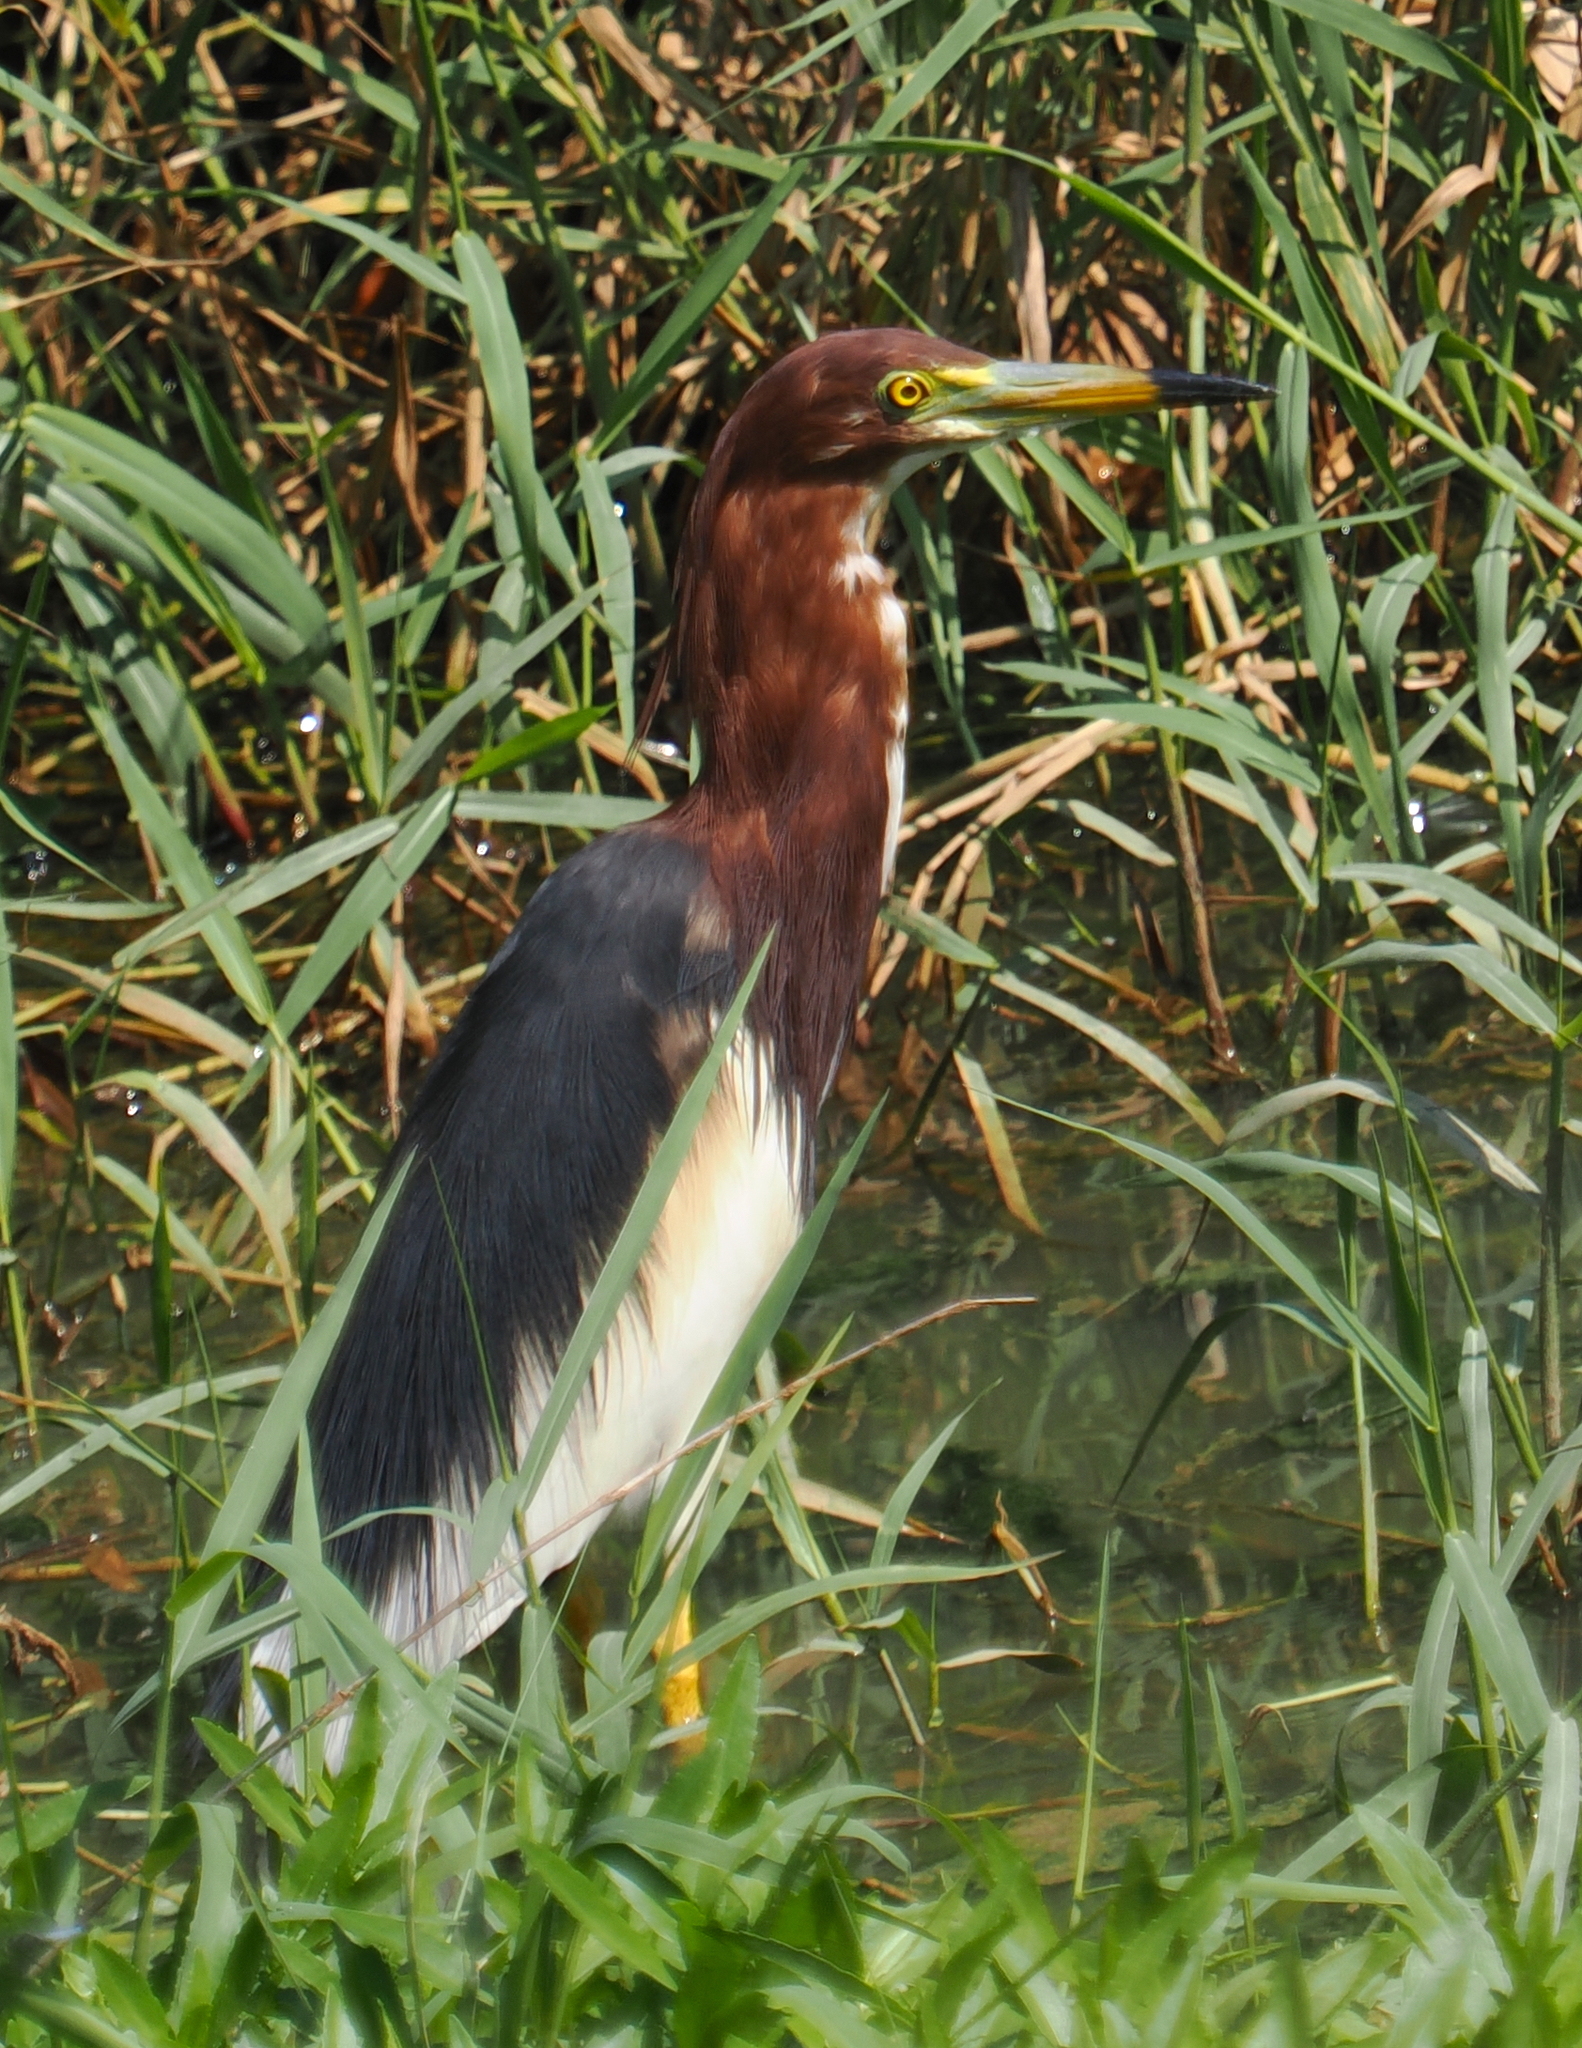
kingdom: Animalia
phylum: Chordata
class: Aves
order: Pelecaniformes
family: Ardeidae
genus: Ardeola
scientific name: Ardeola bacchus
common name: Chinese pond heron
